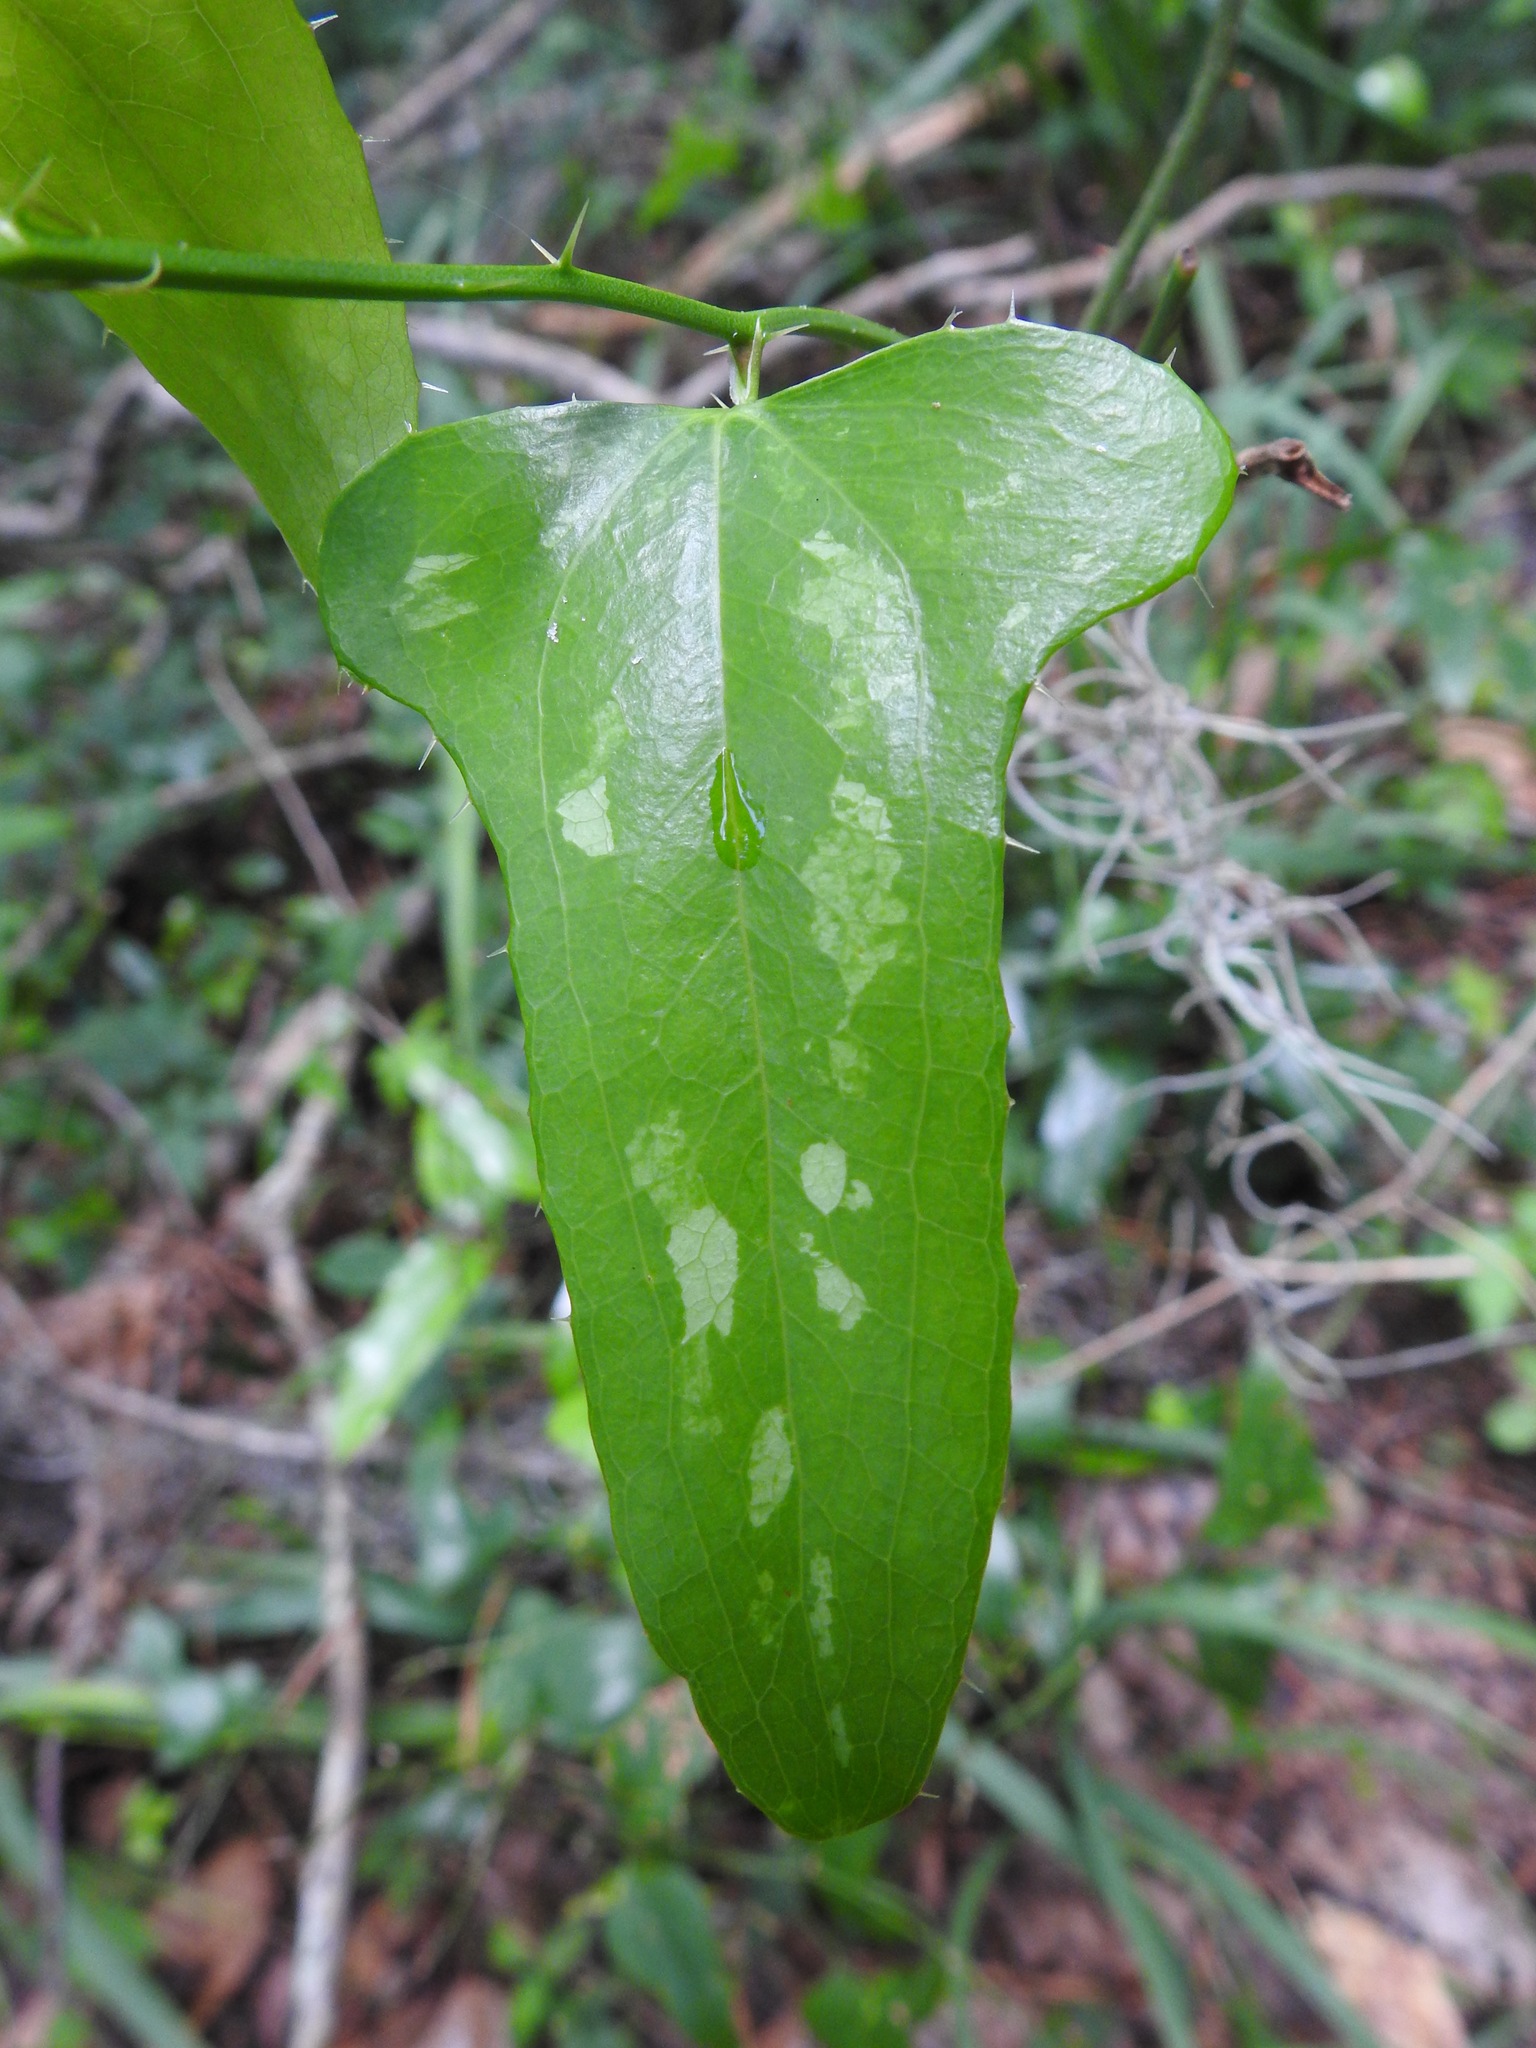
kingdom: Plantae
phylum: Tracheophyta
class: Liliopsida
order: Liliales
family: Smilacaceae
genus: Smilax
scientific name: Smilax bona-nox
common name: Catbrier
